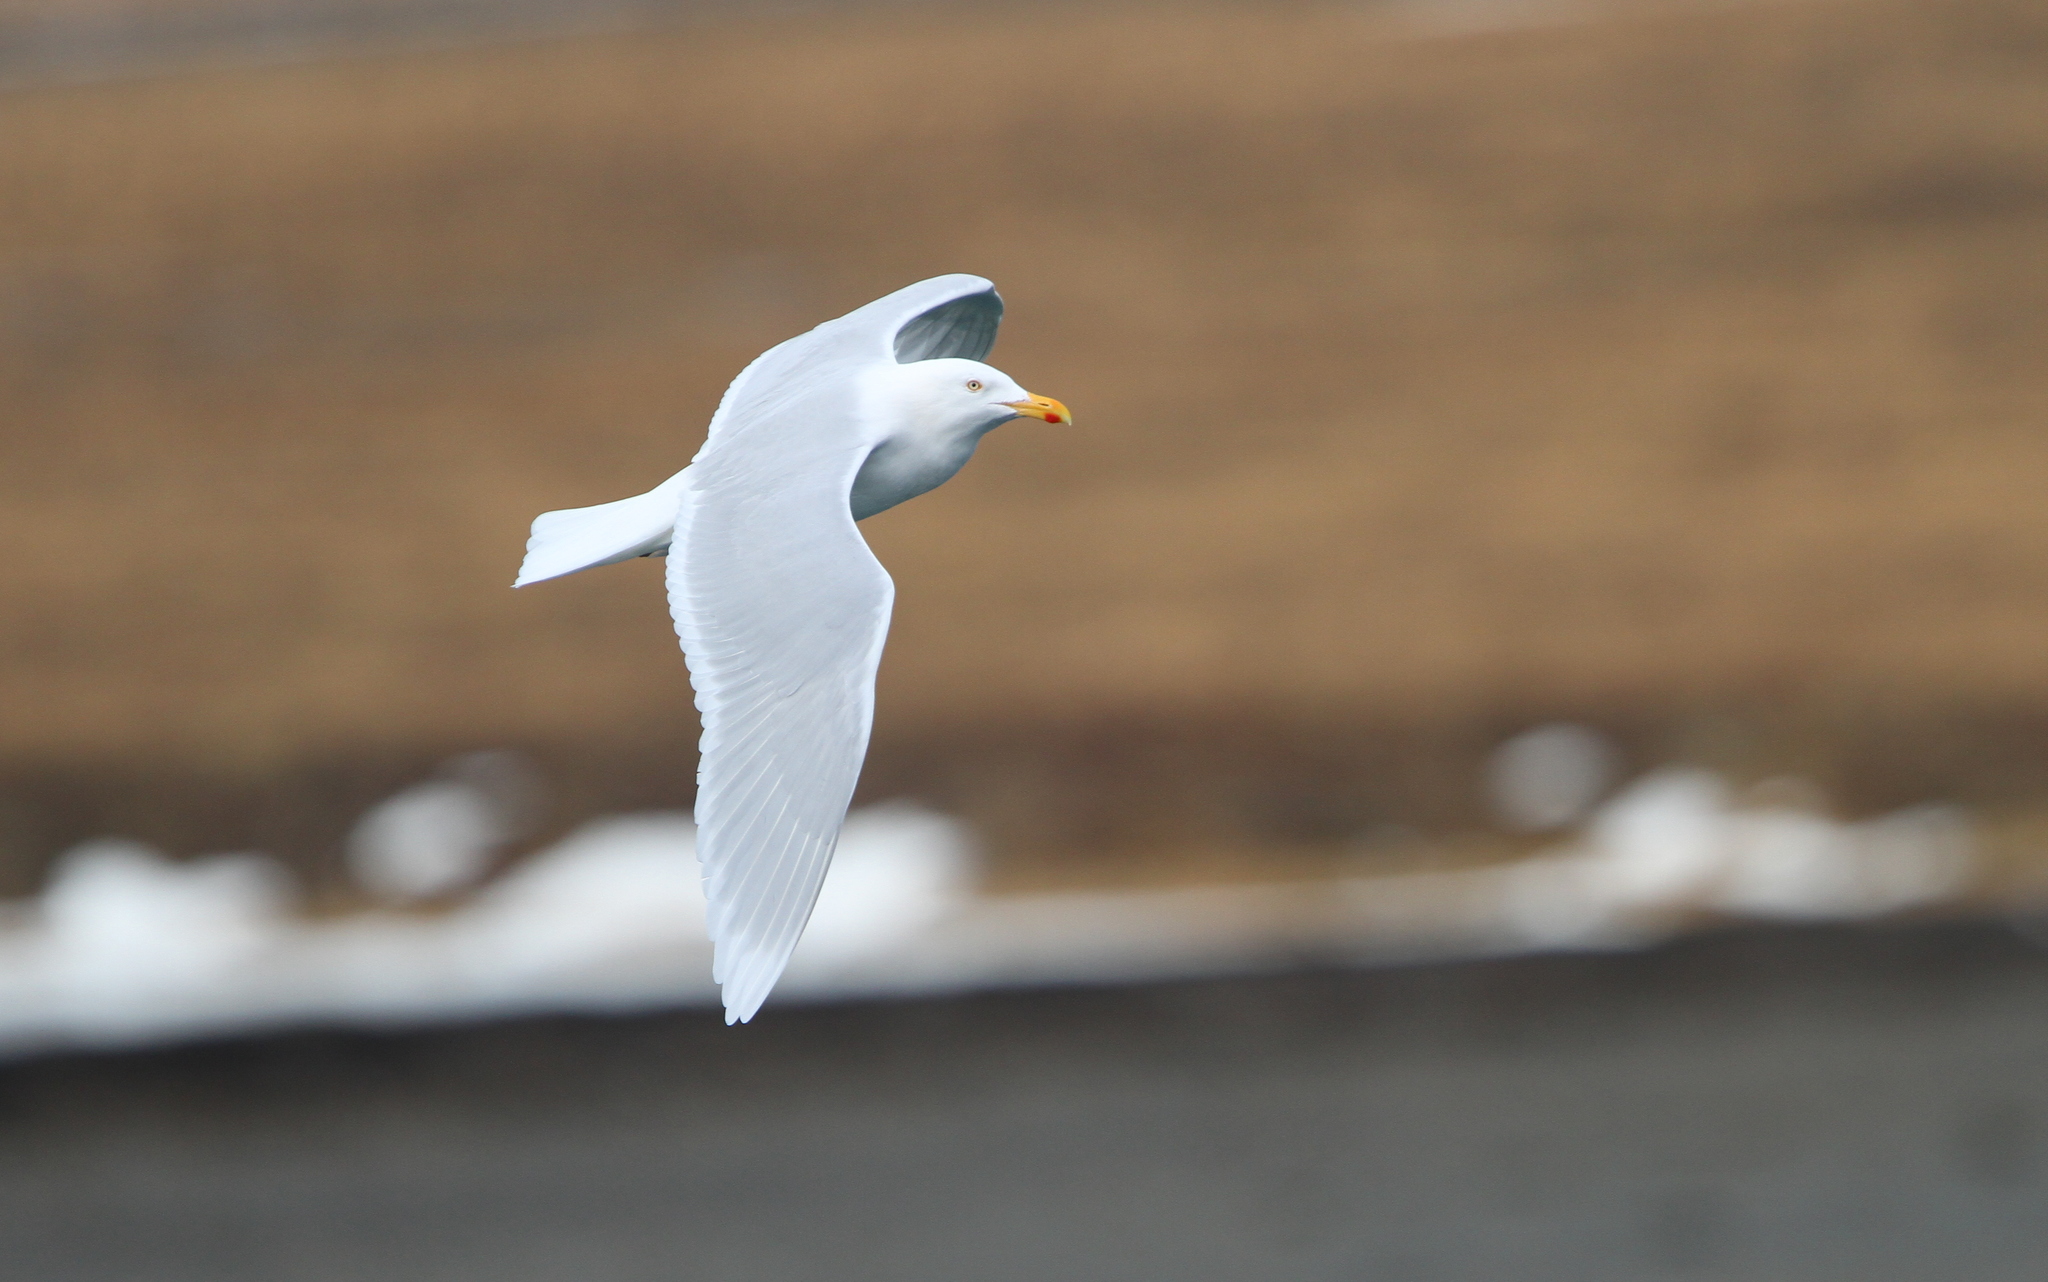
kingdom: Animalia
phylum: Chordata
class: Aves
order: Charadriiformes
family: Laridae
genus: Larus
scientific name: Larus hyperboreus
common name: Glaucous gull
